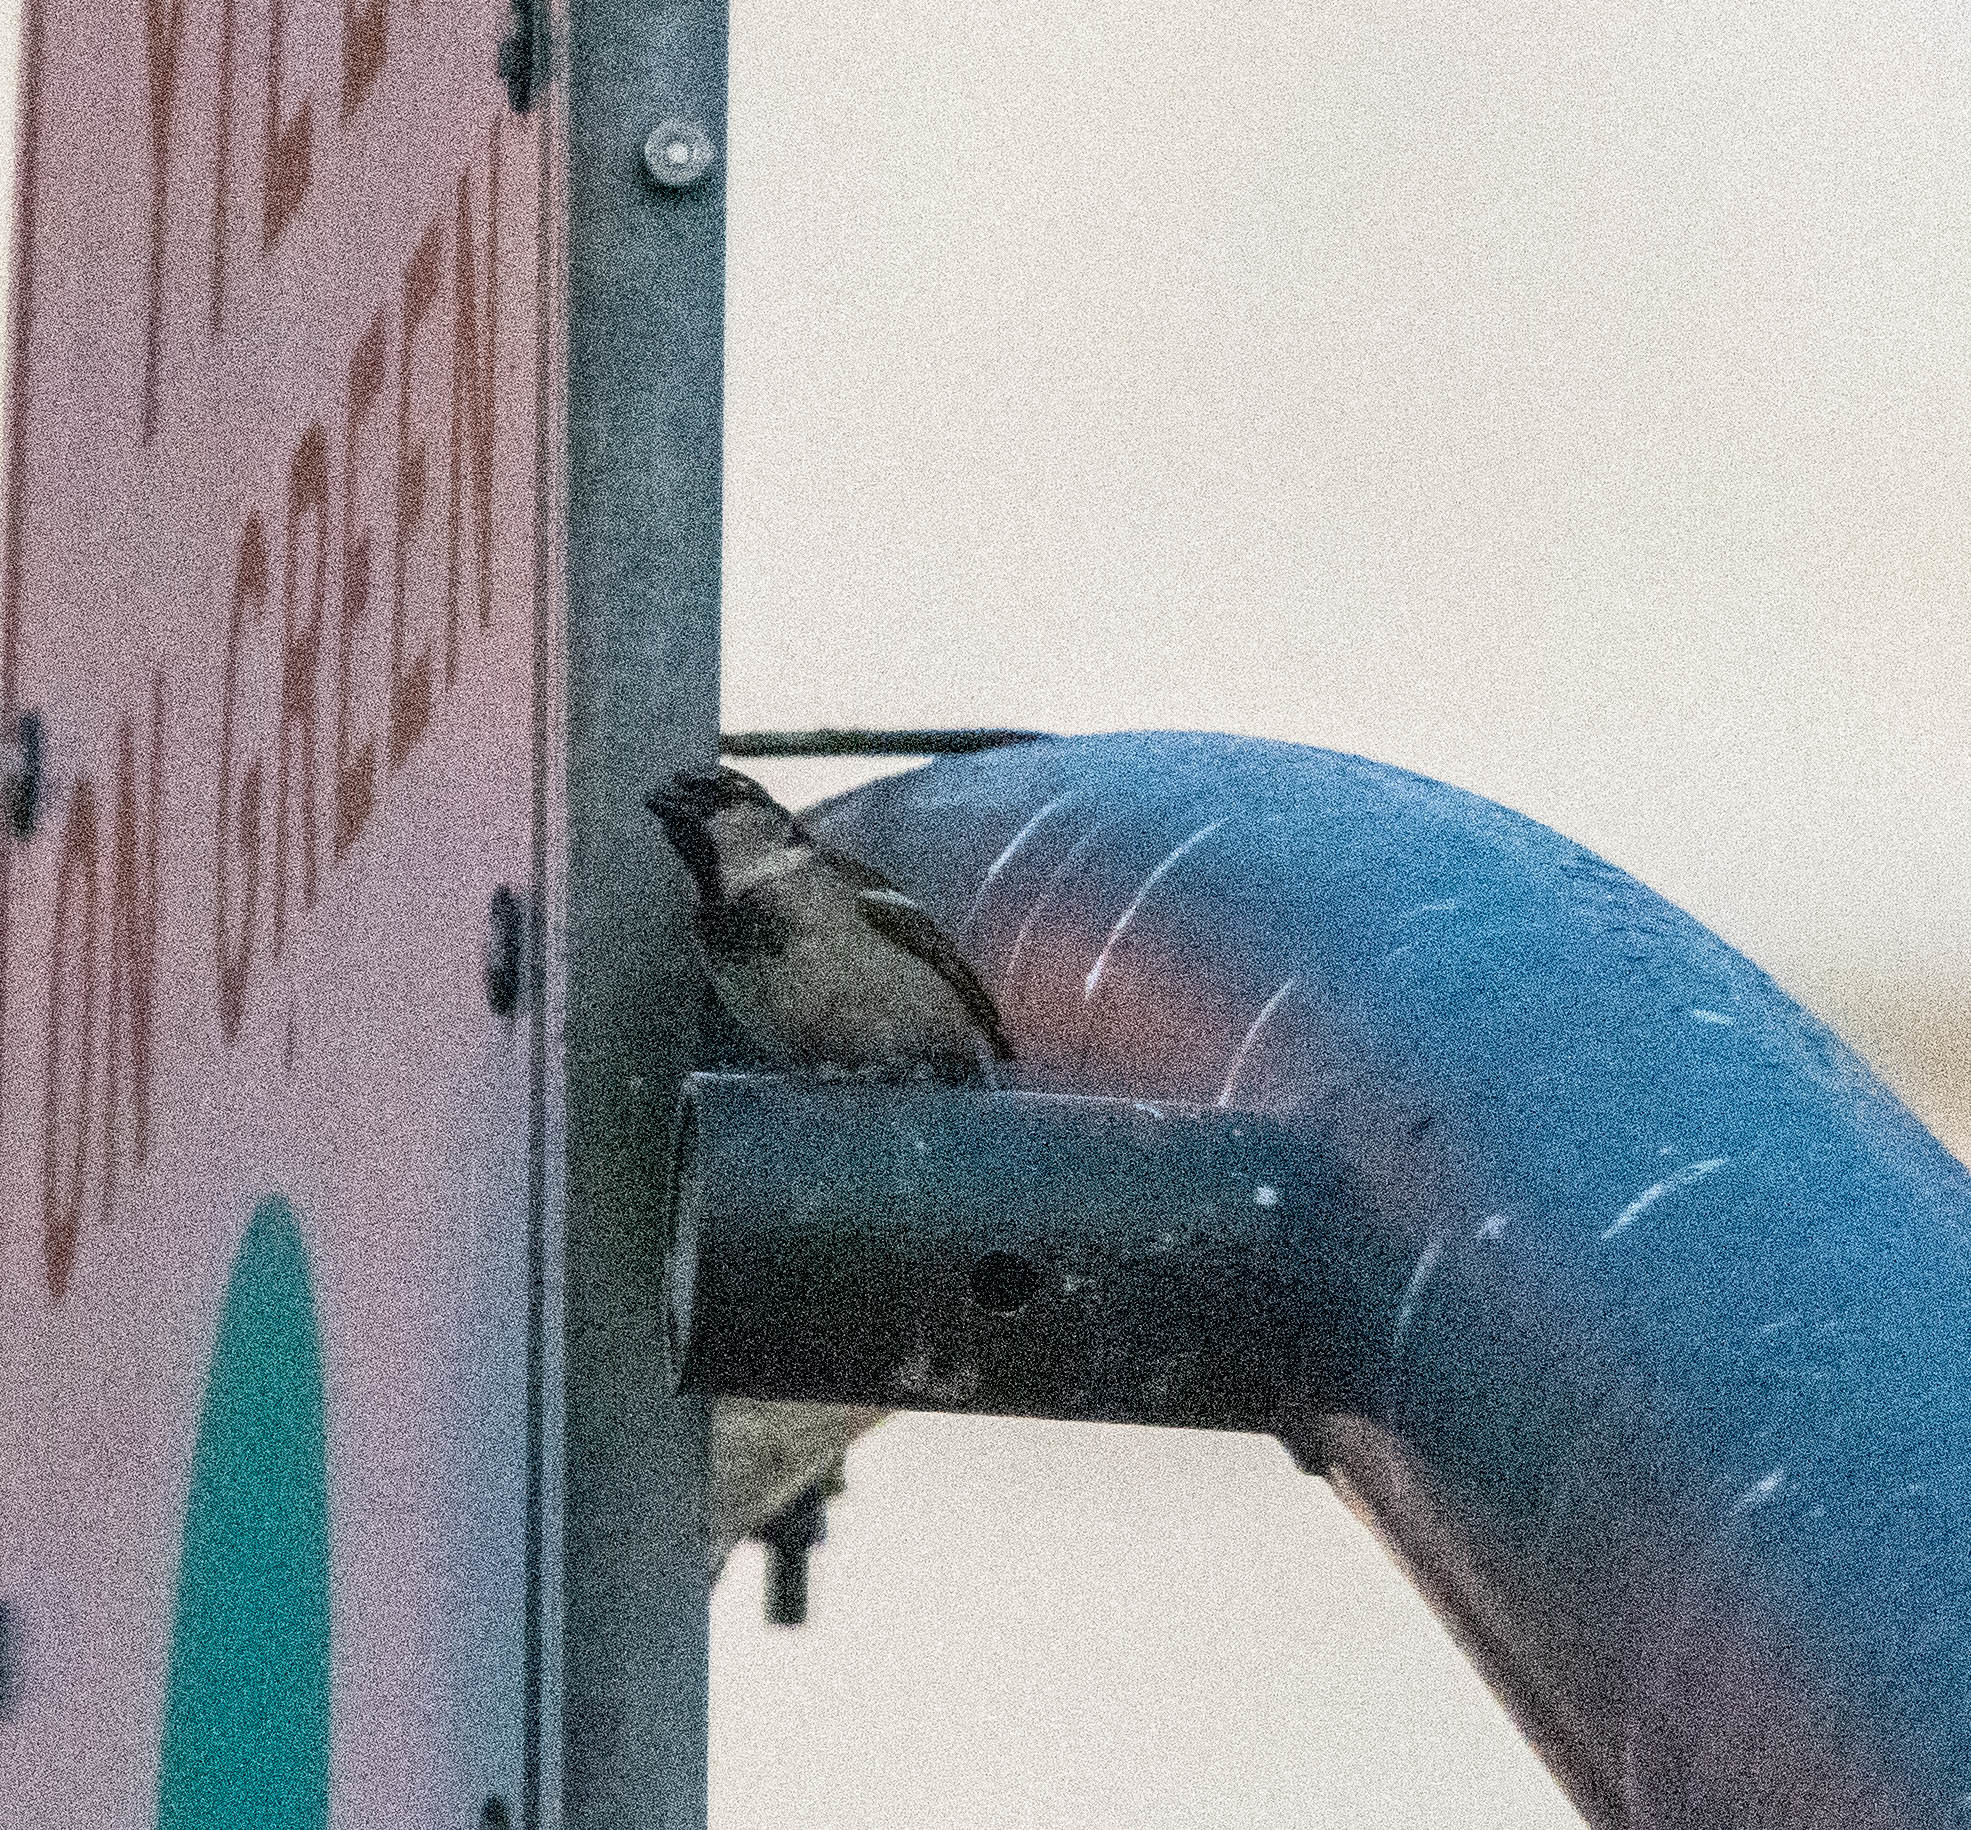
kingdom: Animalia
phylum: Chordata
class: Aves
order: Passeriformes
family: Passeridae
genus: Passer
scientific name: Passer domesticus
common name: House sparrow
